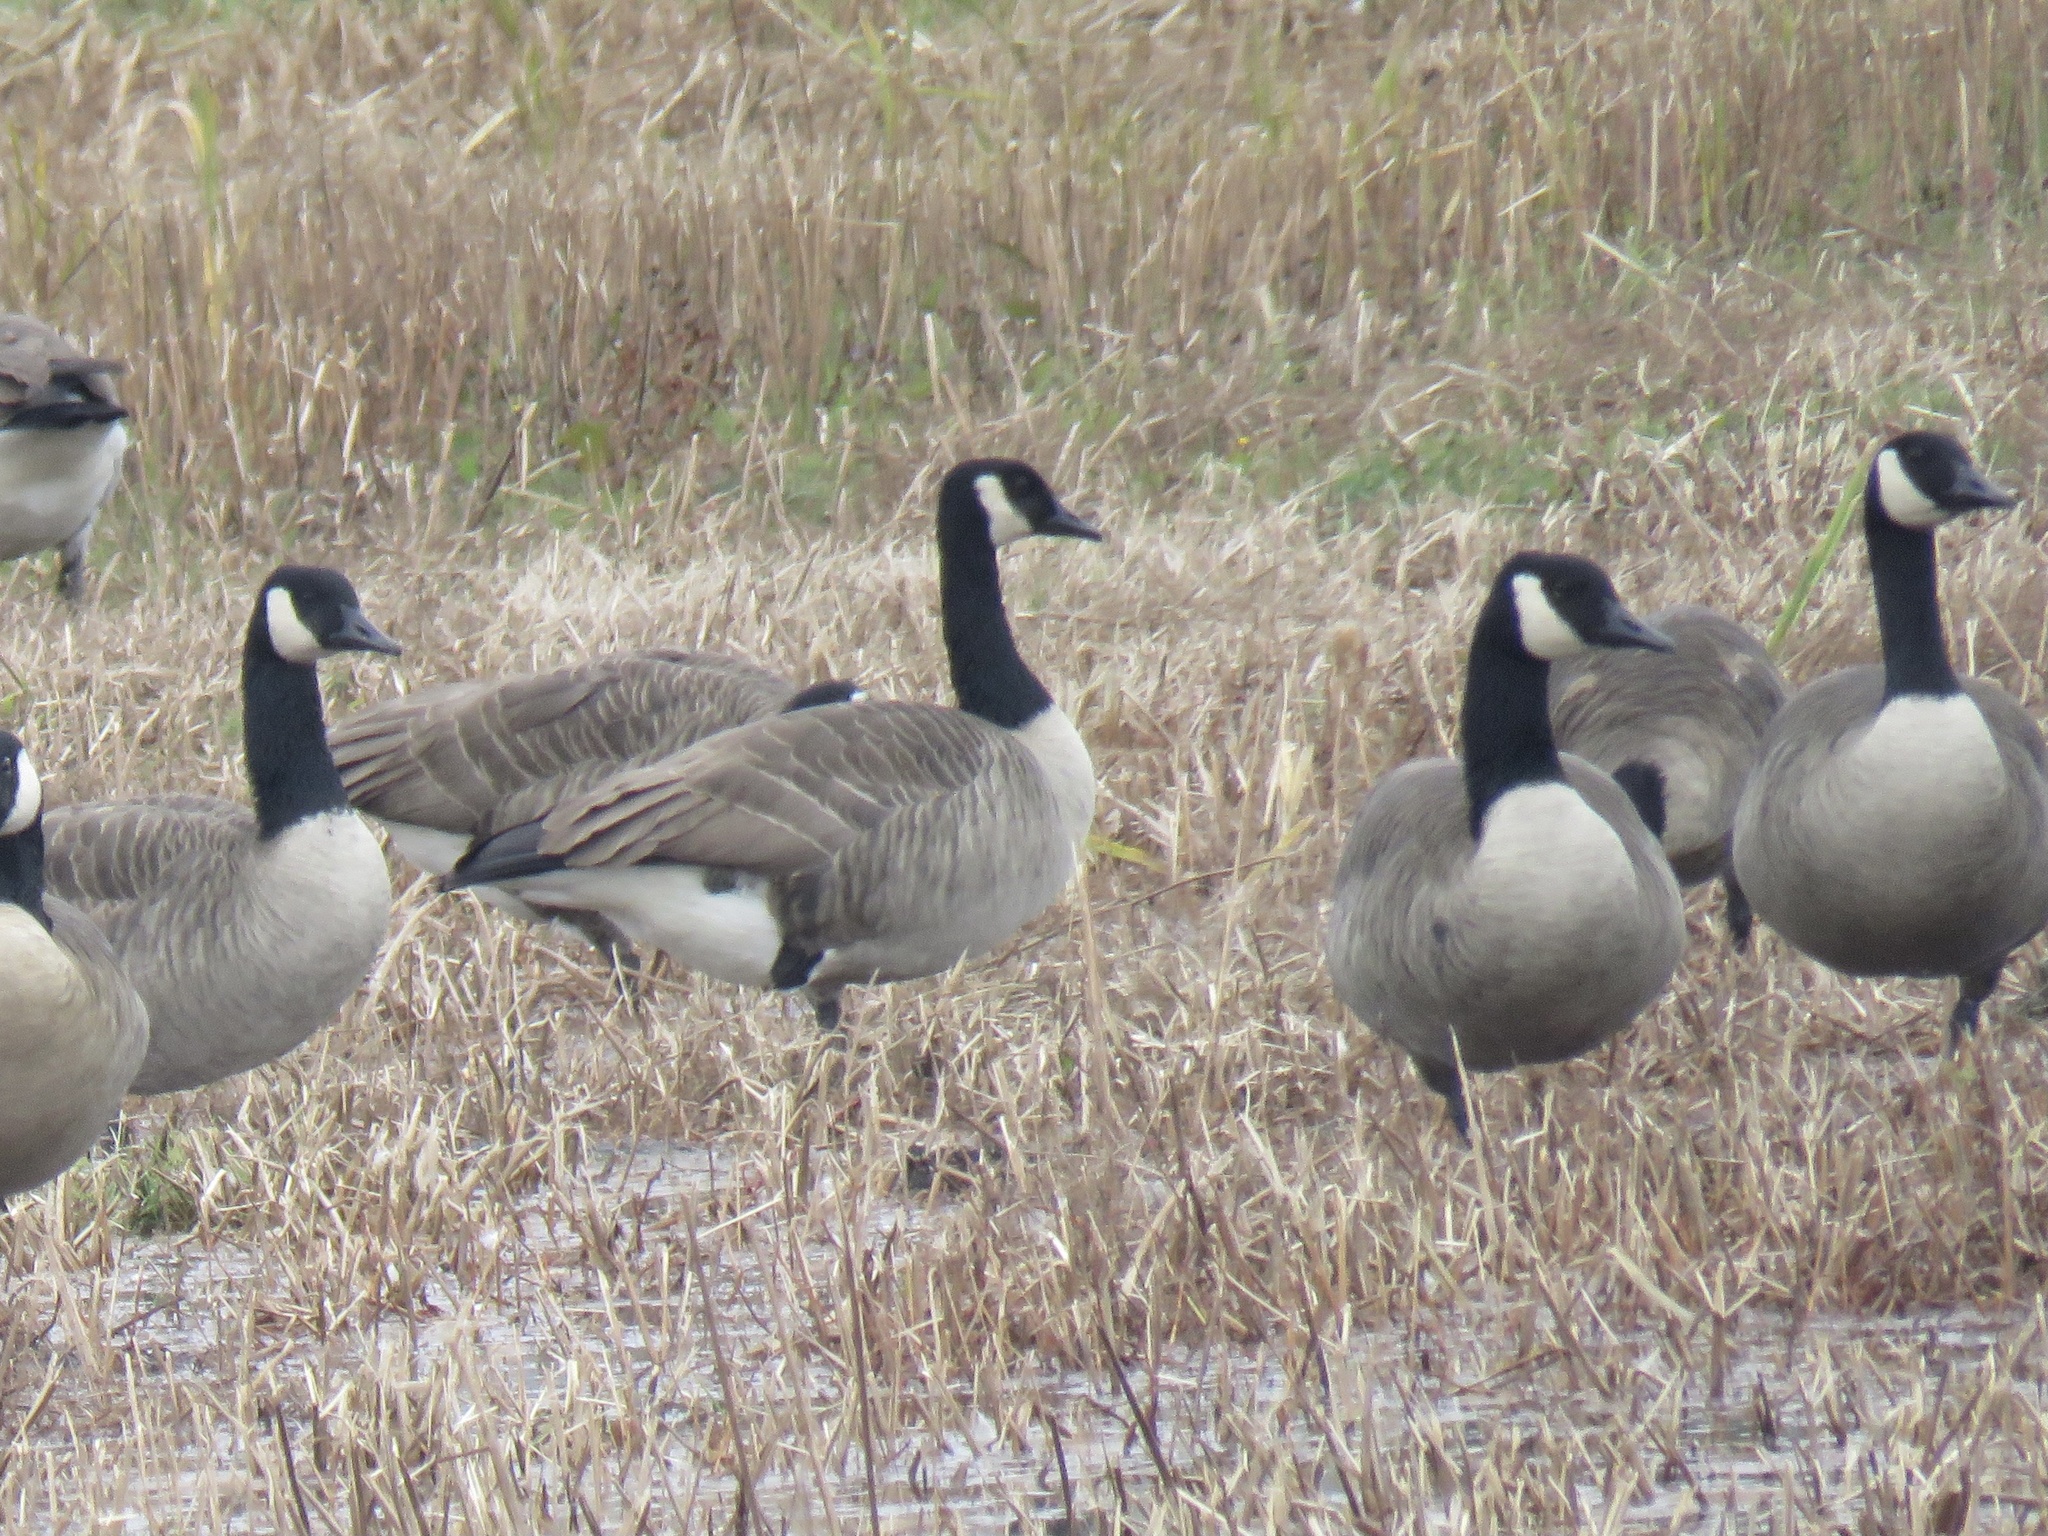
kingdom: Animalia
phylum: Chordata
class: Aves
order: Anseriformes
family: Anatidae
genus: Branta
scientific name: Branta canadensis
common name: Canada goose
